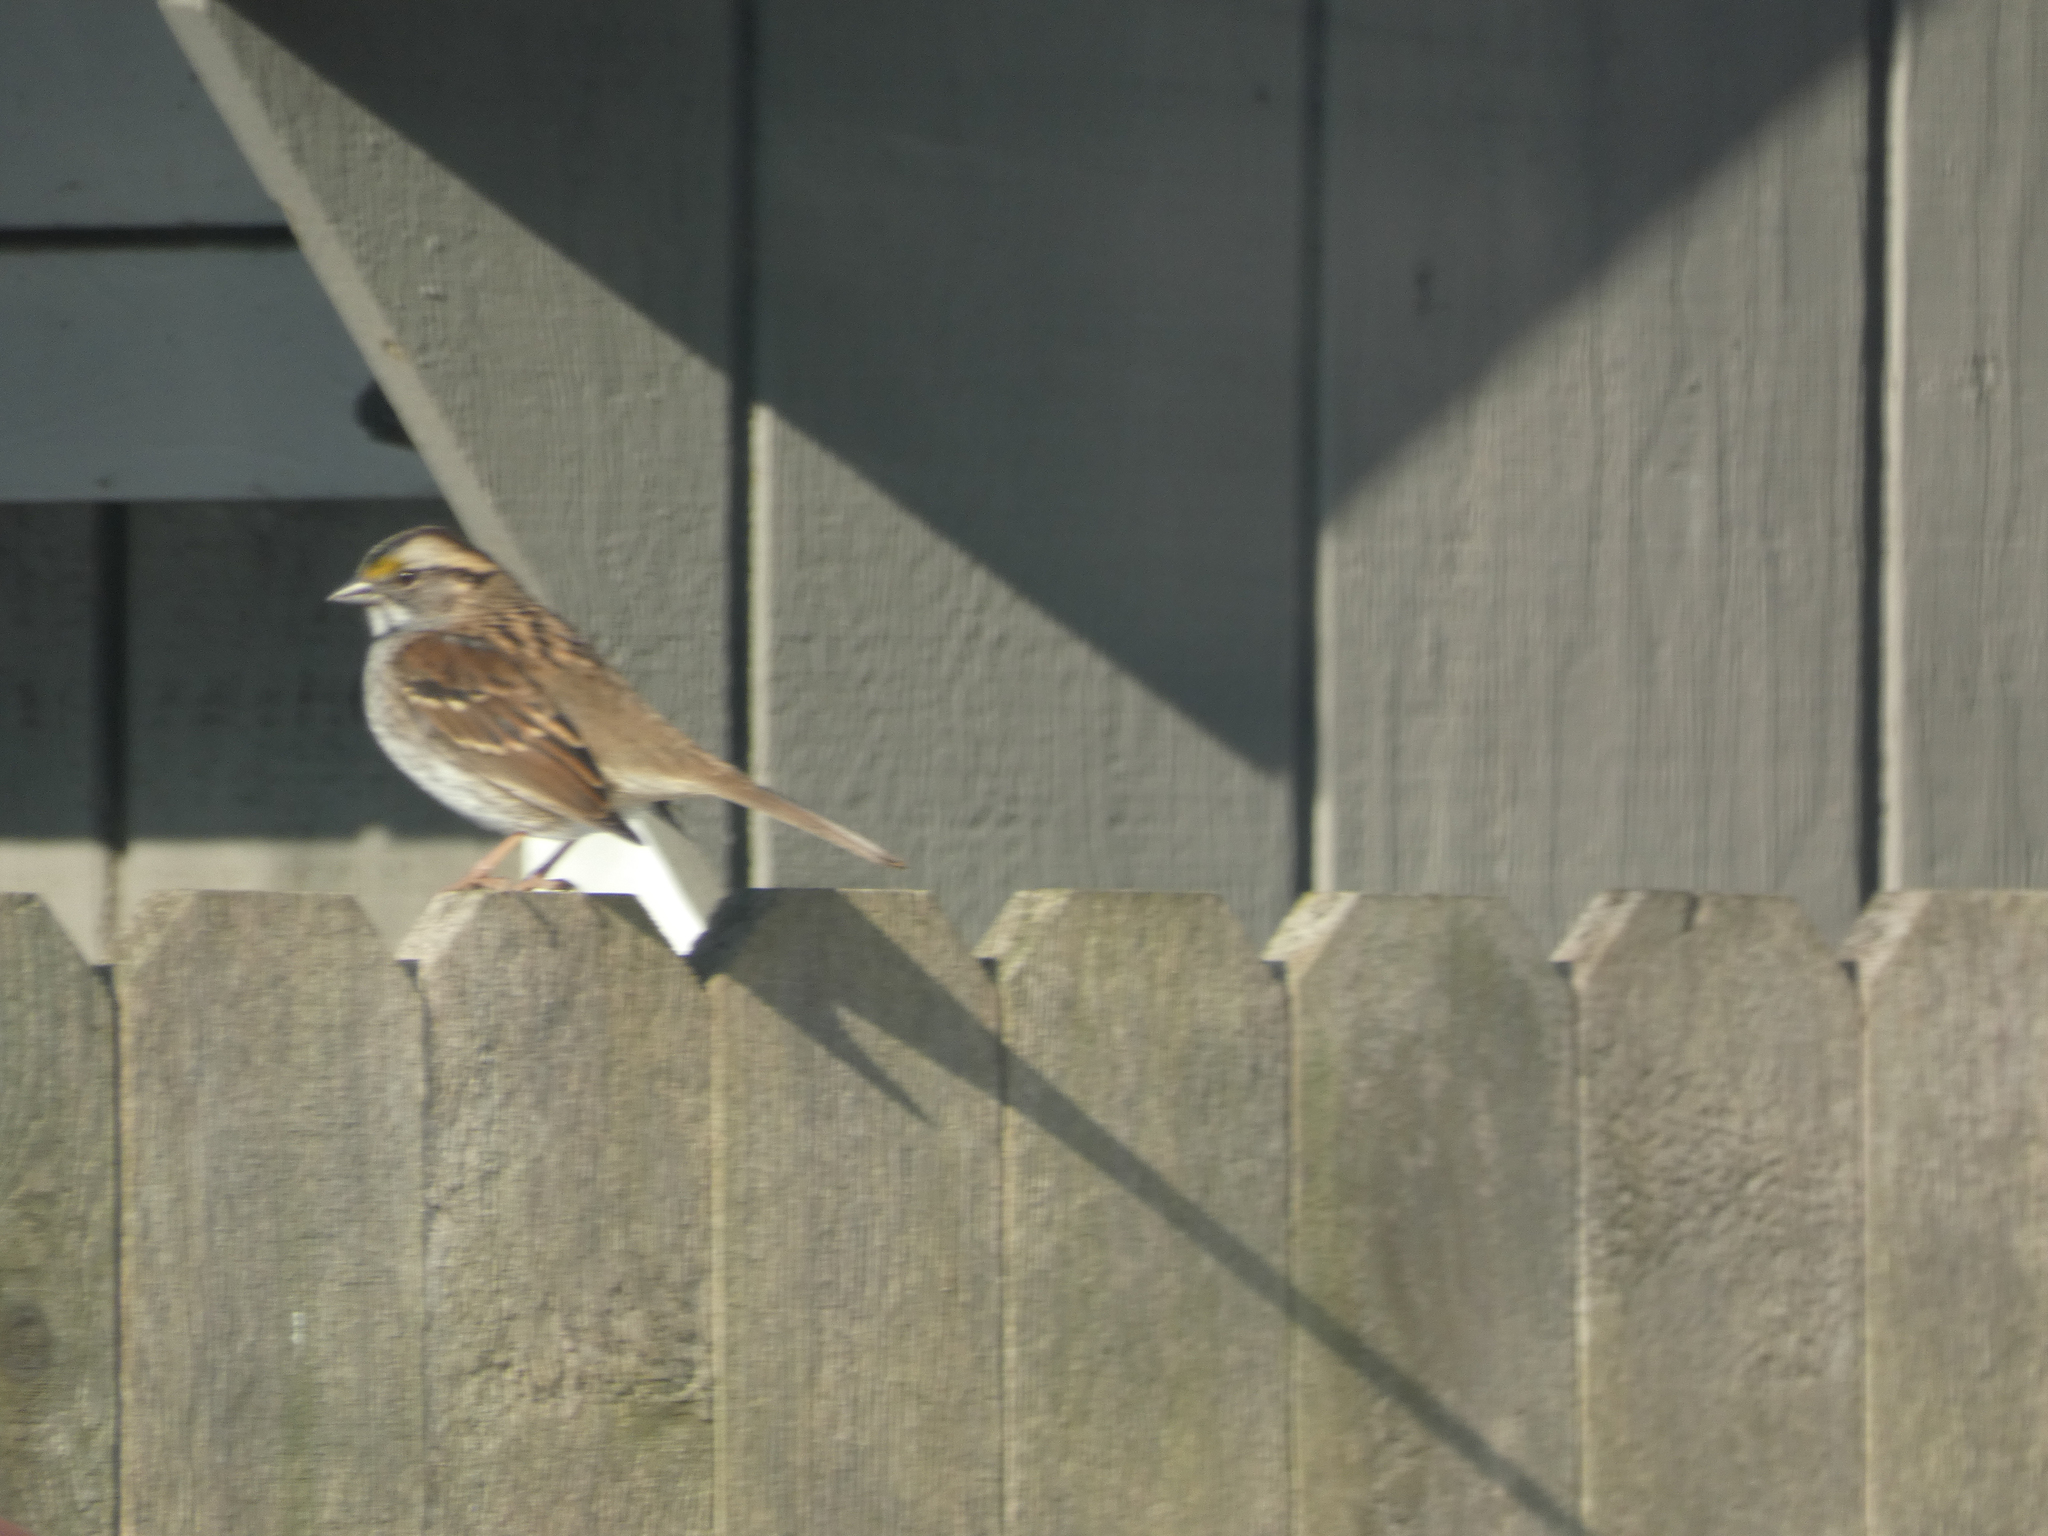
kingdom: Animalia
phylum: Chordata
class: Aves
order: Passeriformes
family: Passerellidae
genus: Zonotrichia
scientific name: Zonotrichia albicollis
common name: White-throated sparrow
